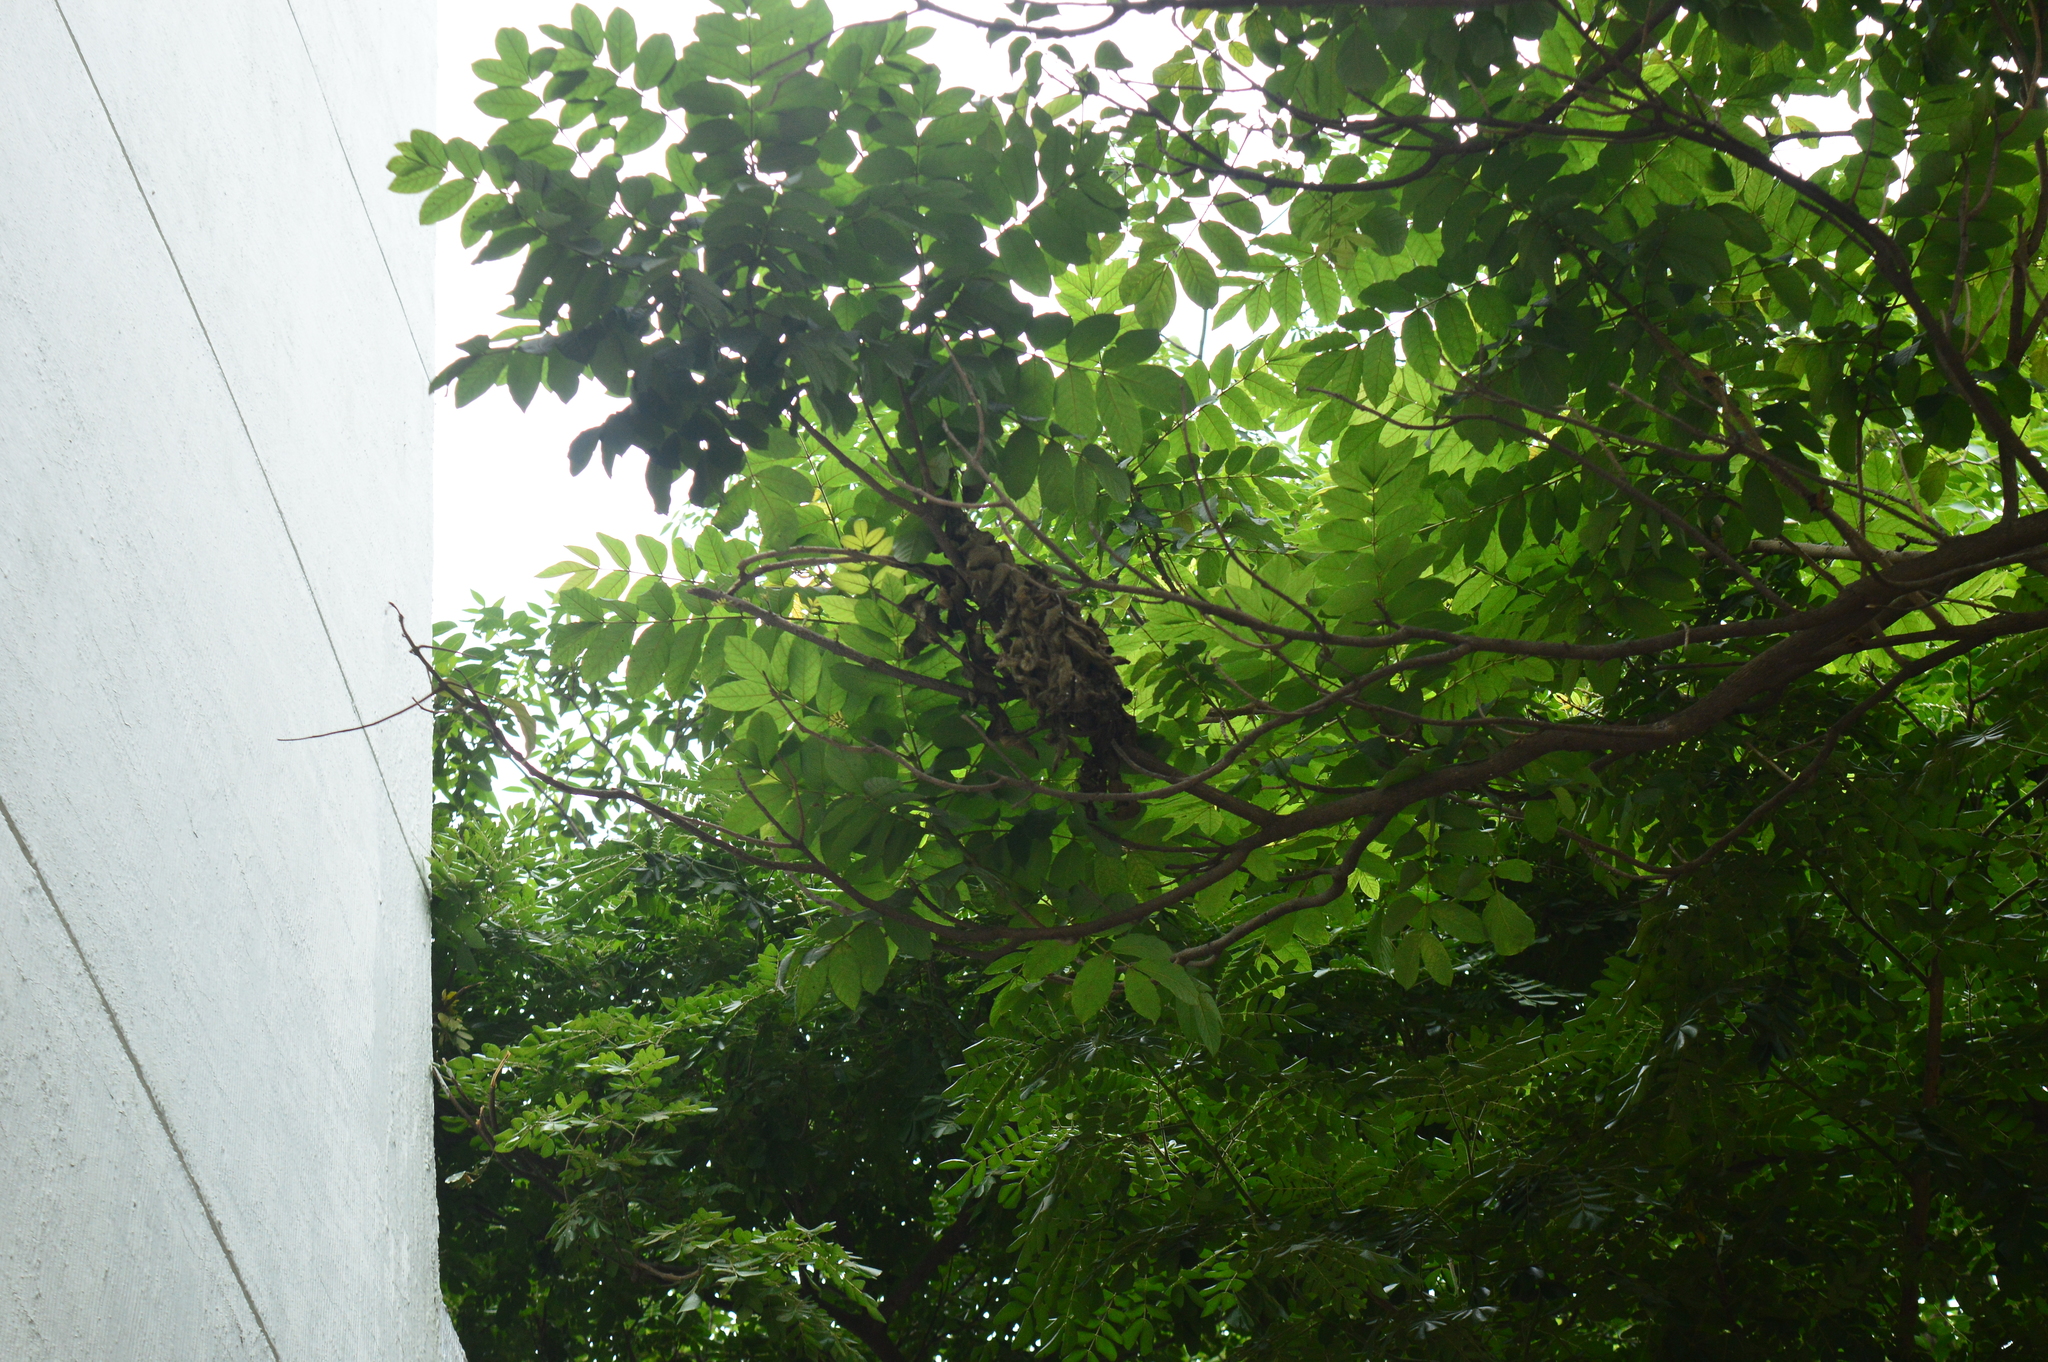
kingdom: Plantae
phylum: Tracheophyta
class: Magnoliopsida
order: Lamiales
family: Bignoniaceae
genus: Spathodea
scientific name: Spathodea campanulata
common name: African tuliptree
